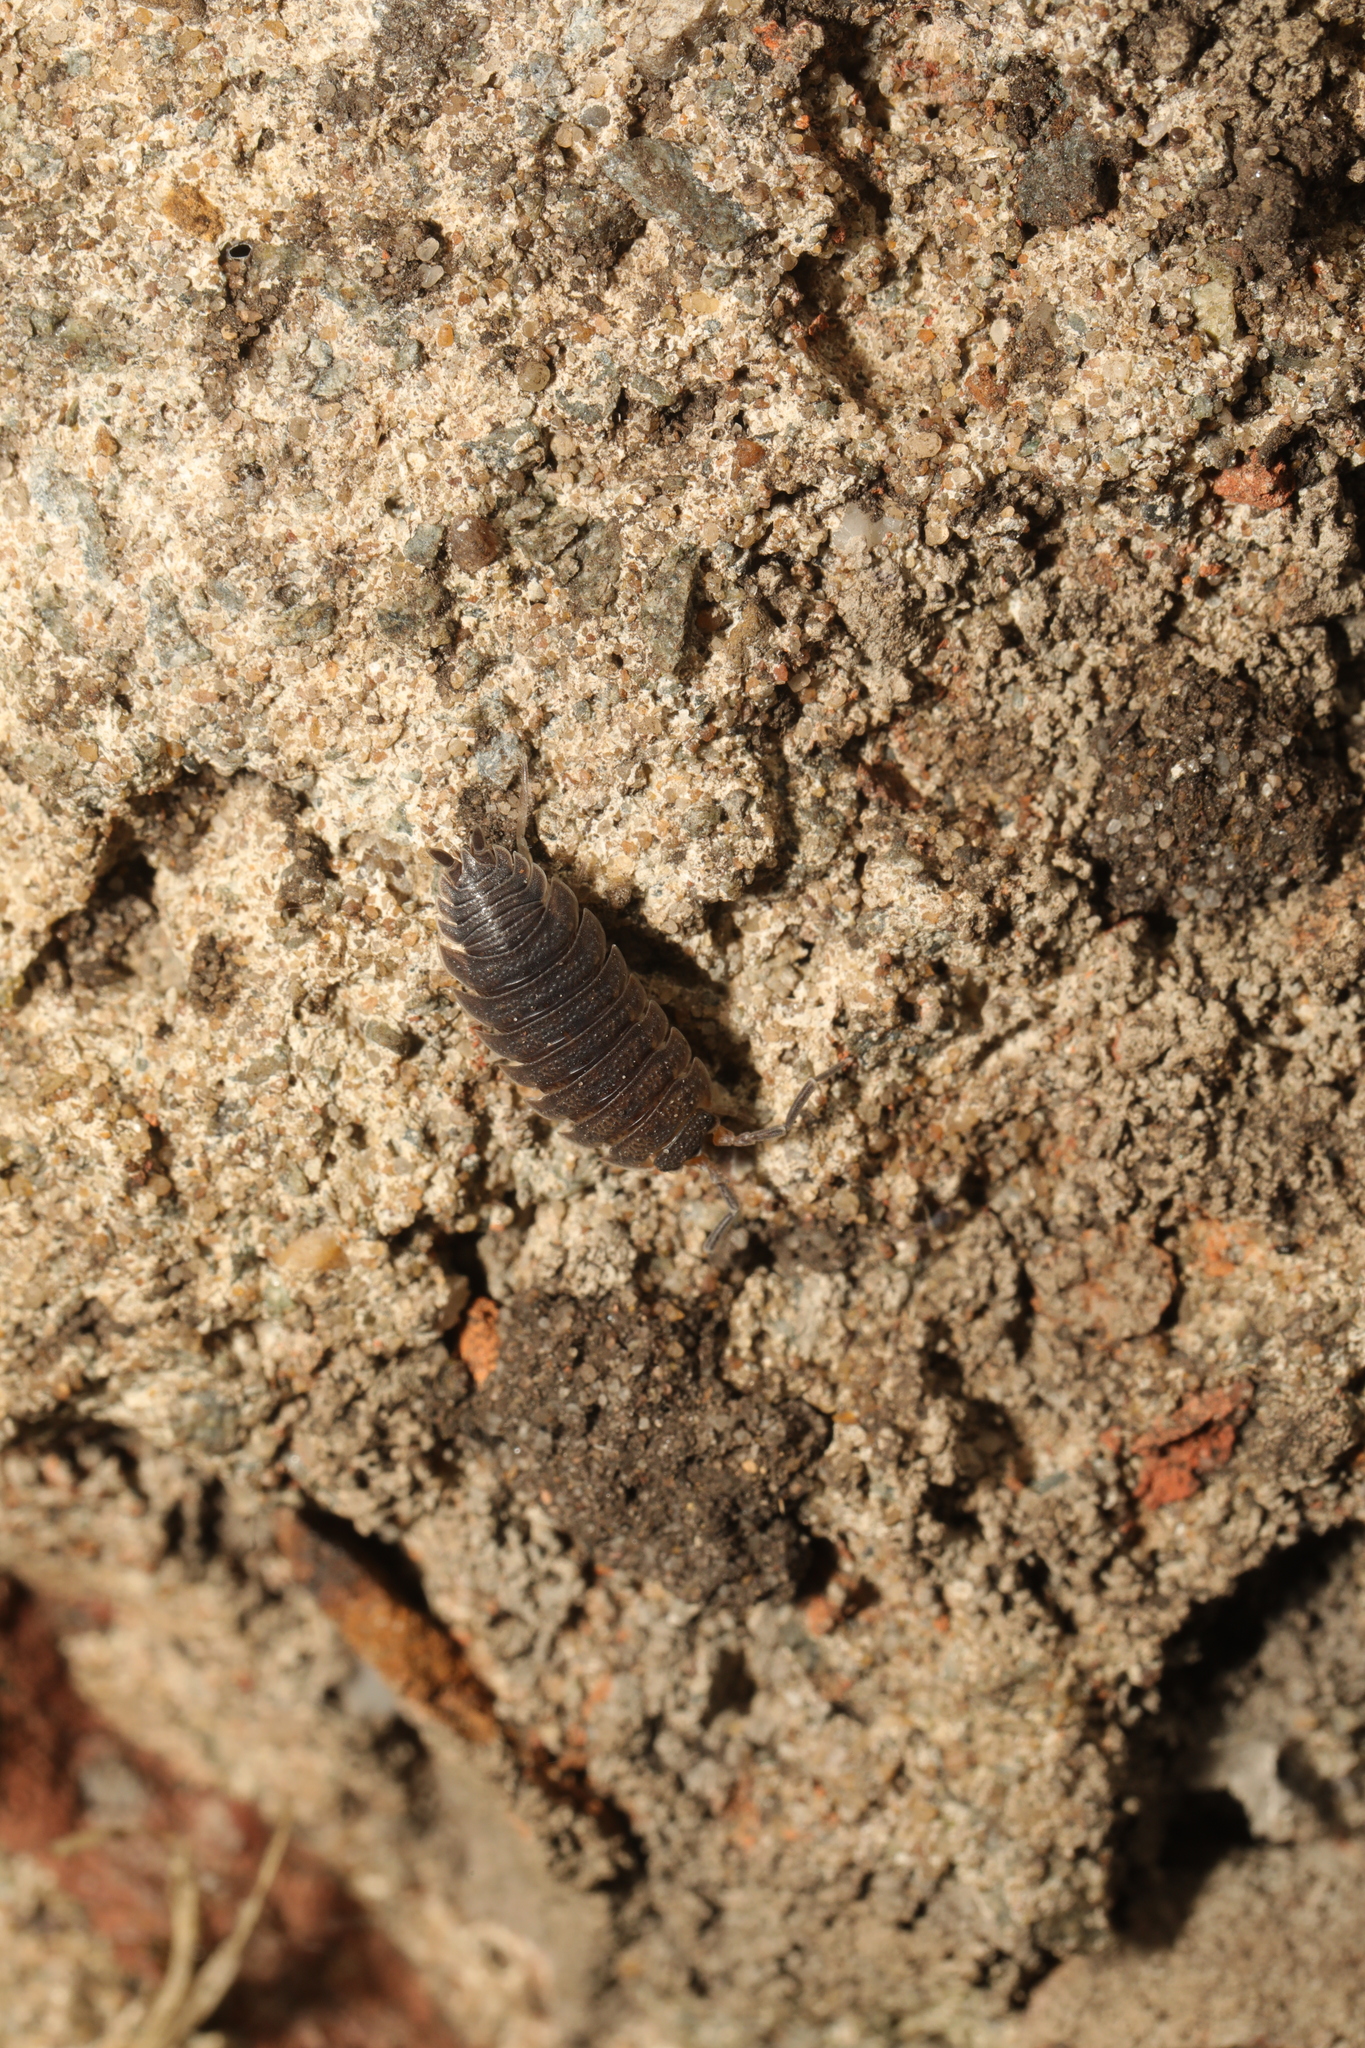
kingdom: Animalia
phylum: Arthropoda
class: Malacostraca
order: Isopoda
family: Porcellionidae
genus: Porcellio
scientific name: Porcellio scaber
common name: Common rough woodlouse
